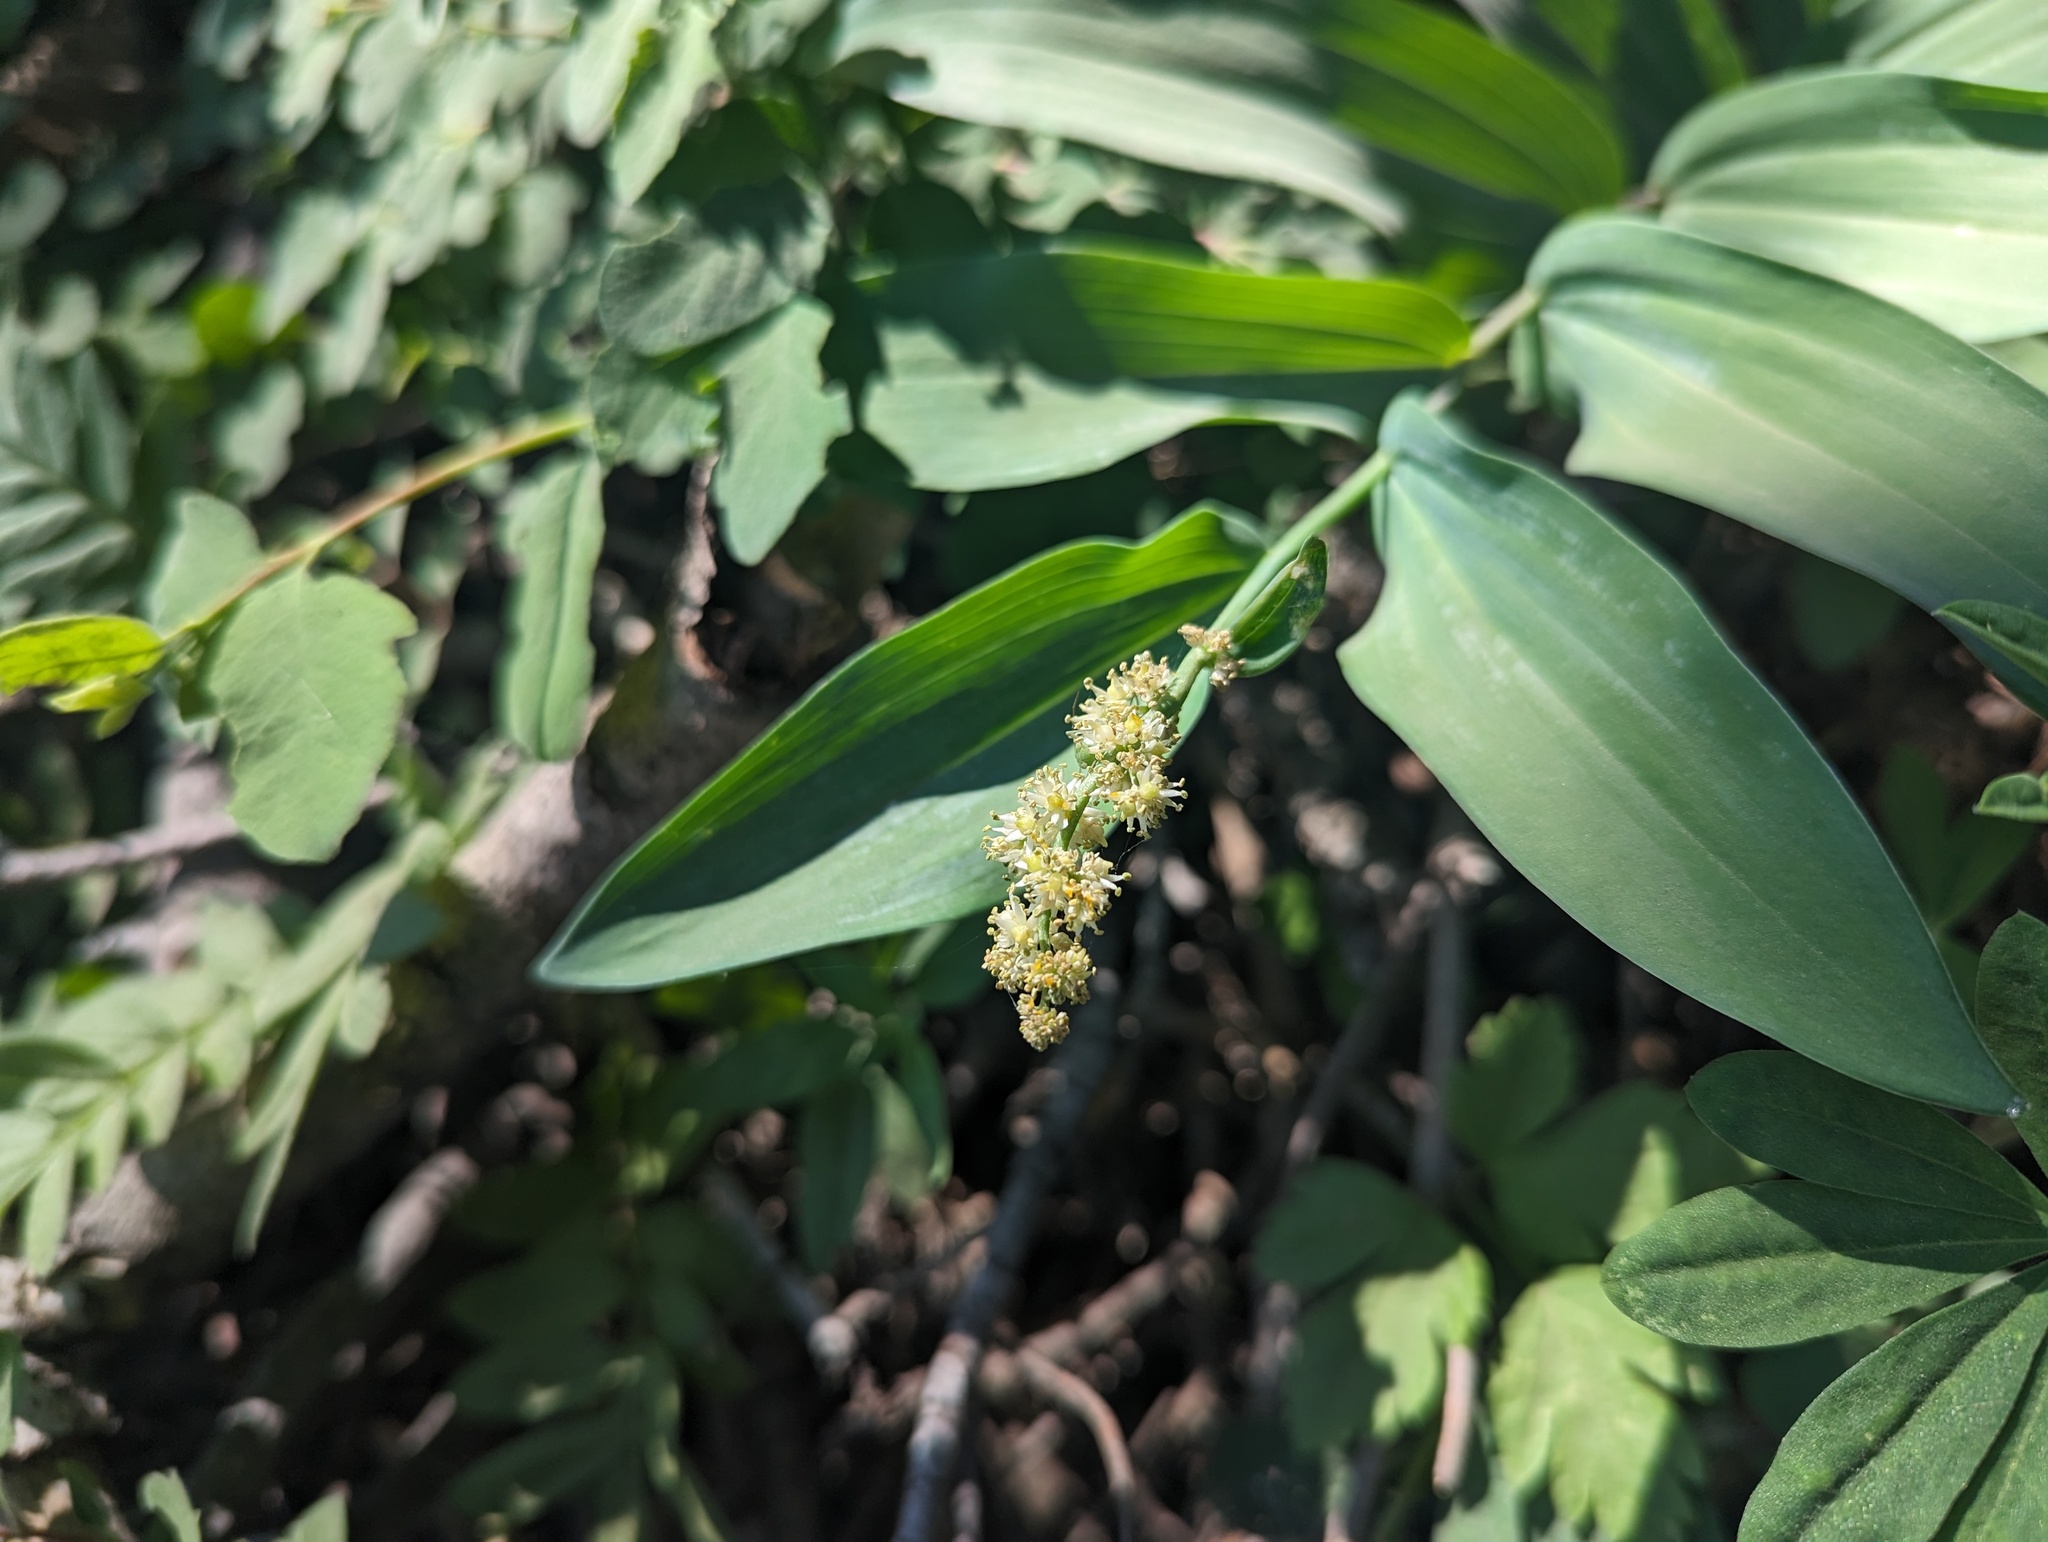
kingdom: Plantae
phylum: Tracheophyta
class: Liliopsida
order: Asparagales
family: Asparagaceae
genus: Maianthemum
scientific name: Maianthemum racemosum
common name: False spikenard
